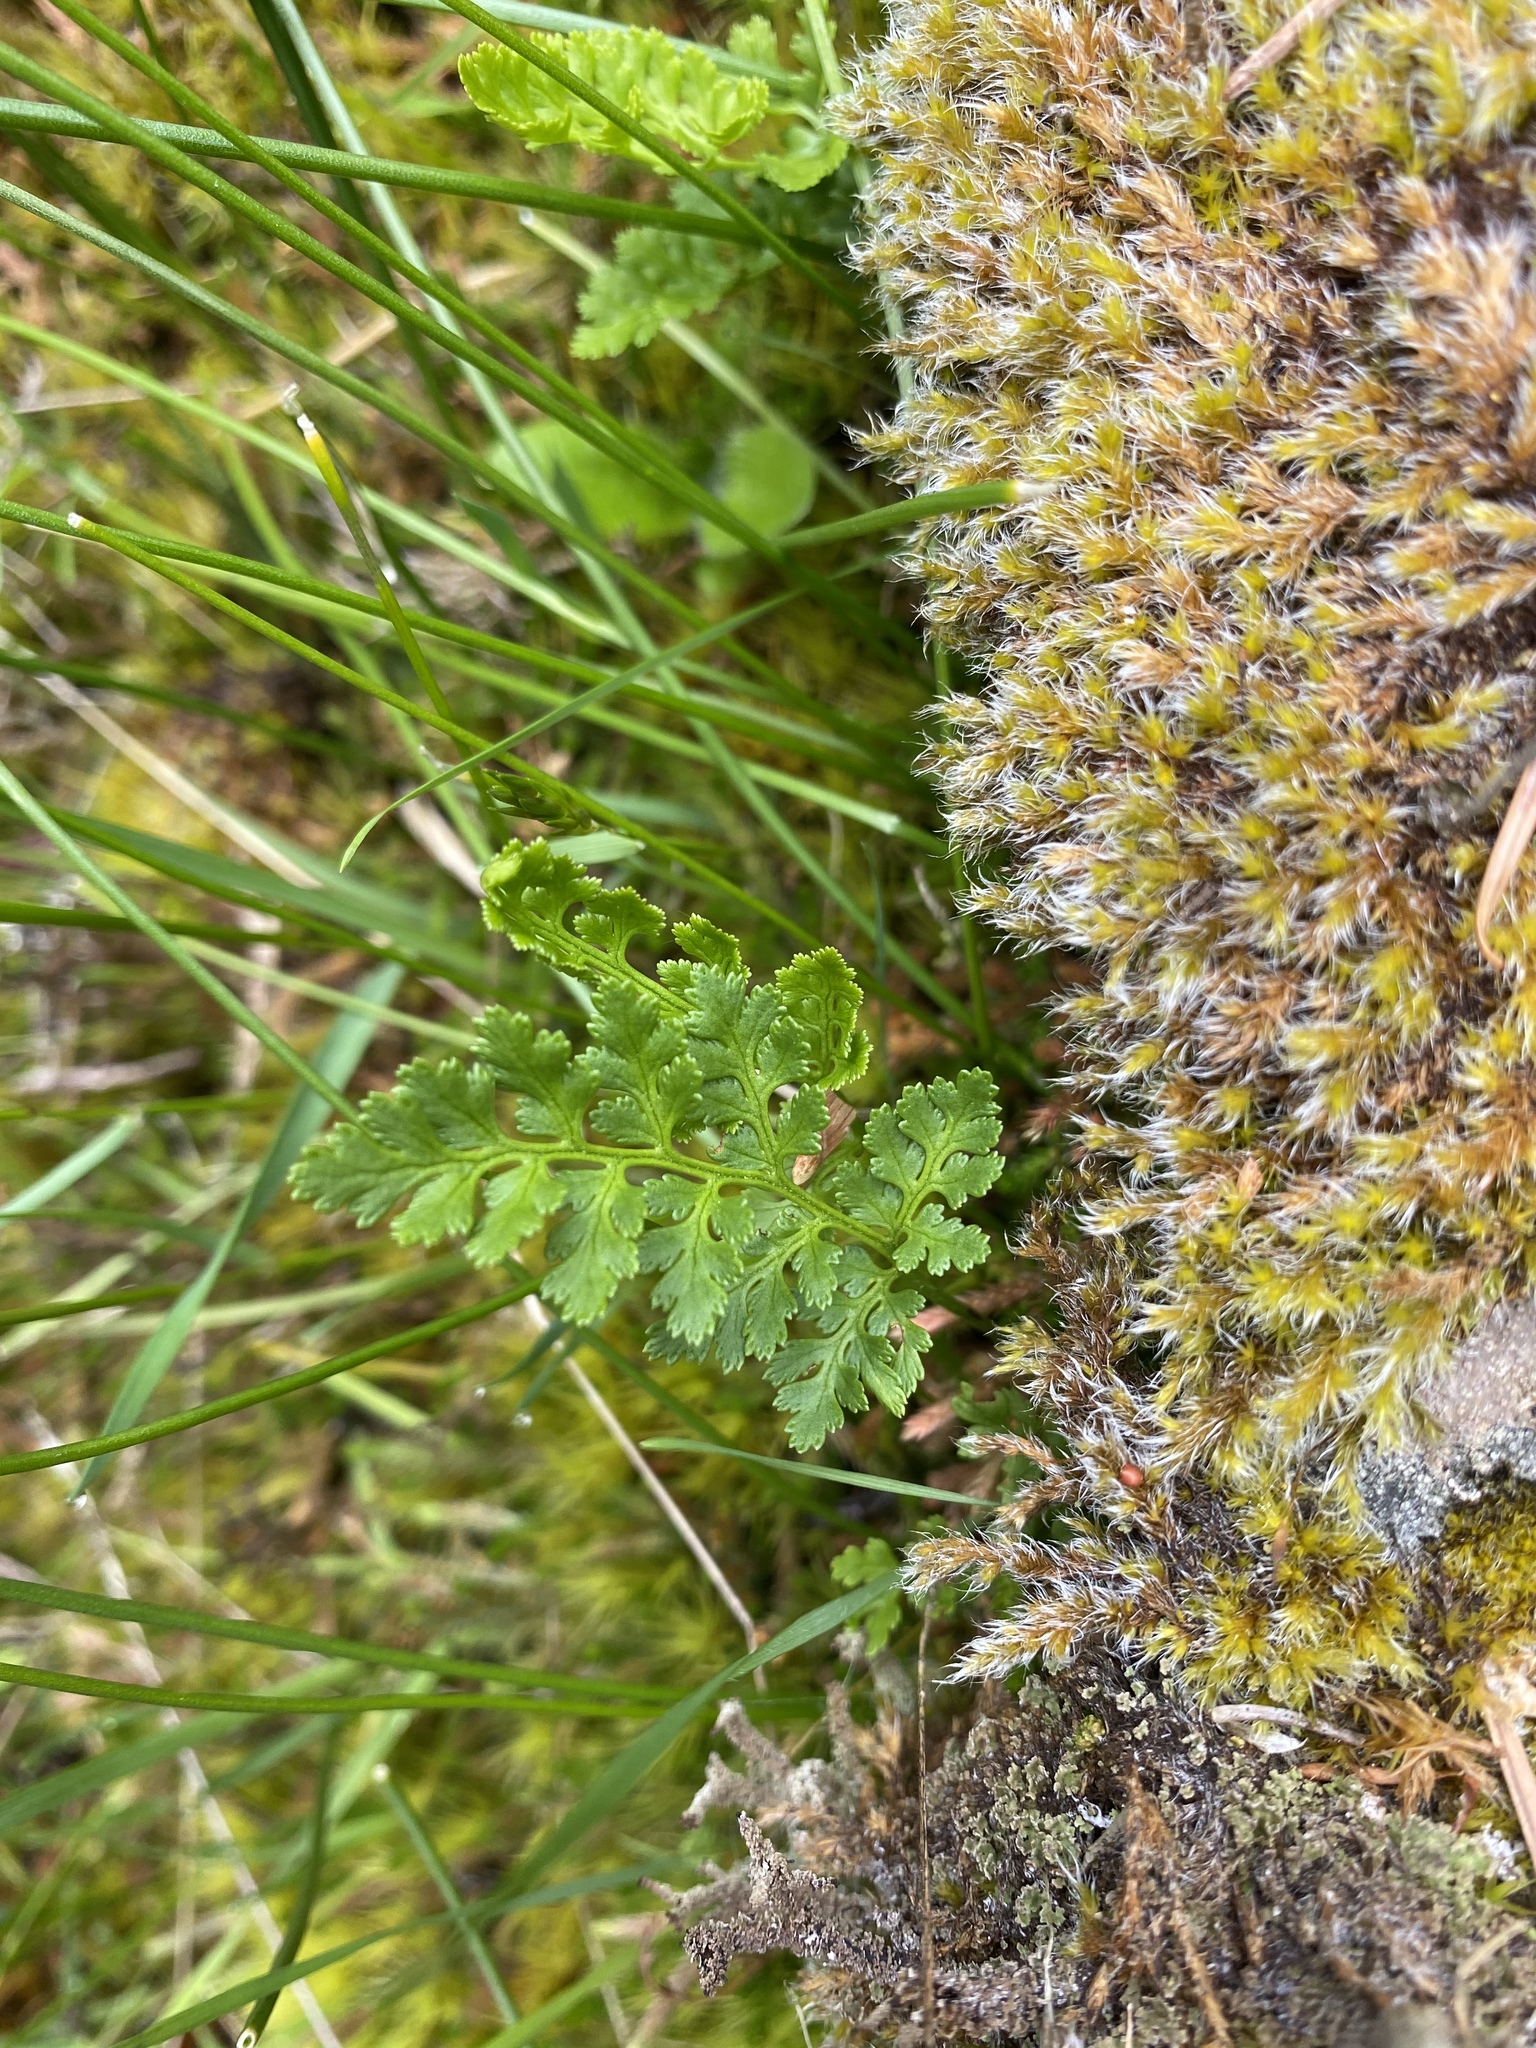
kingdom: Plantae
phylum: Tracheophyta
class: Polypodiopsida
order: Polypodiales
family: Pteridaceae
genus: Cryptogramma
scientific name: Cryptogramma acrostichoides
